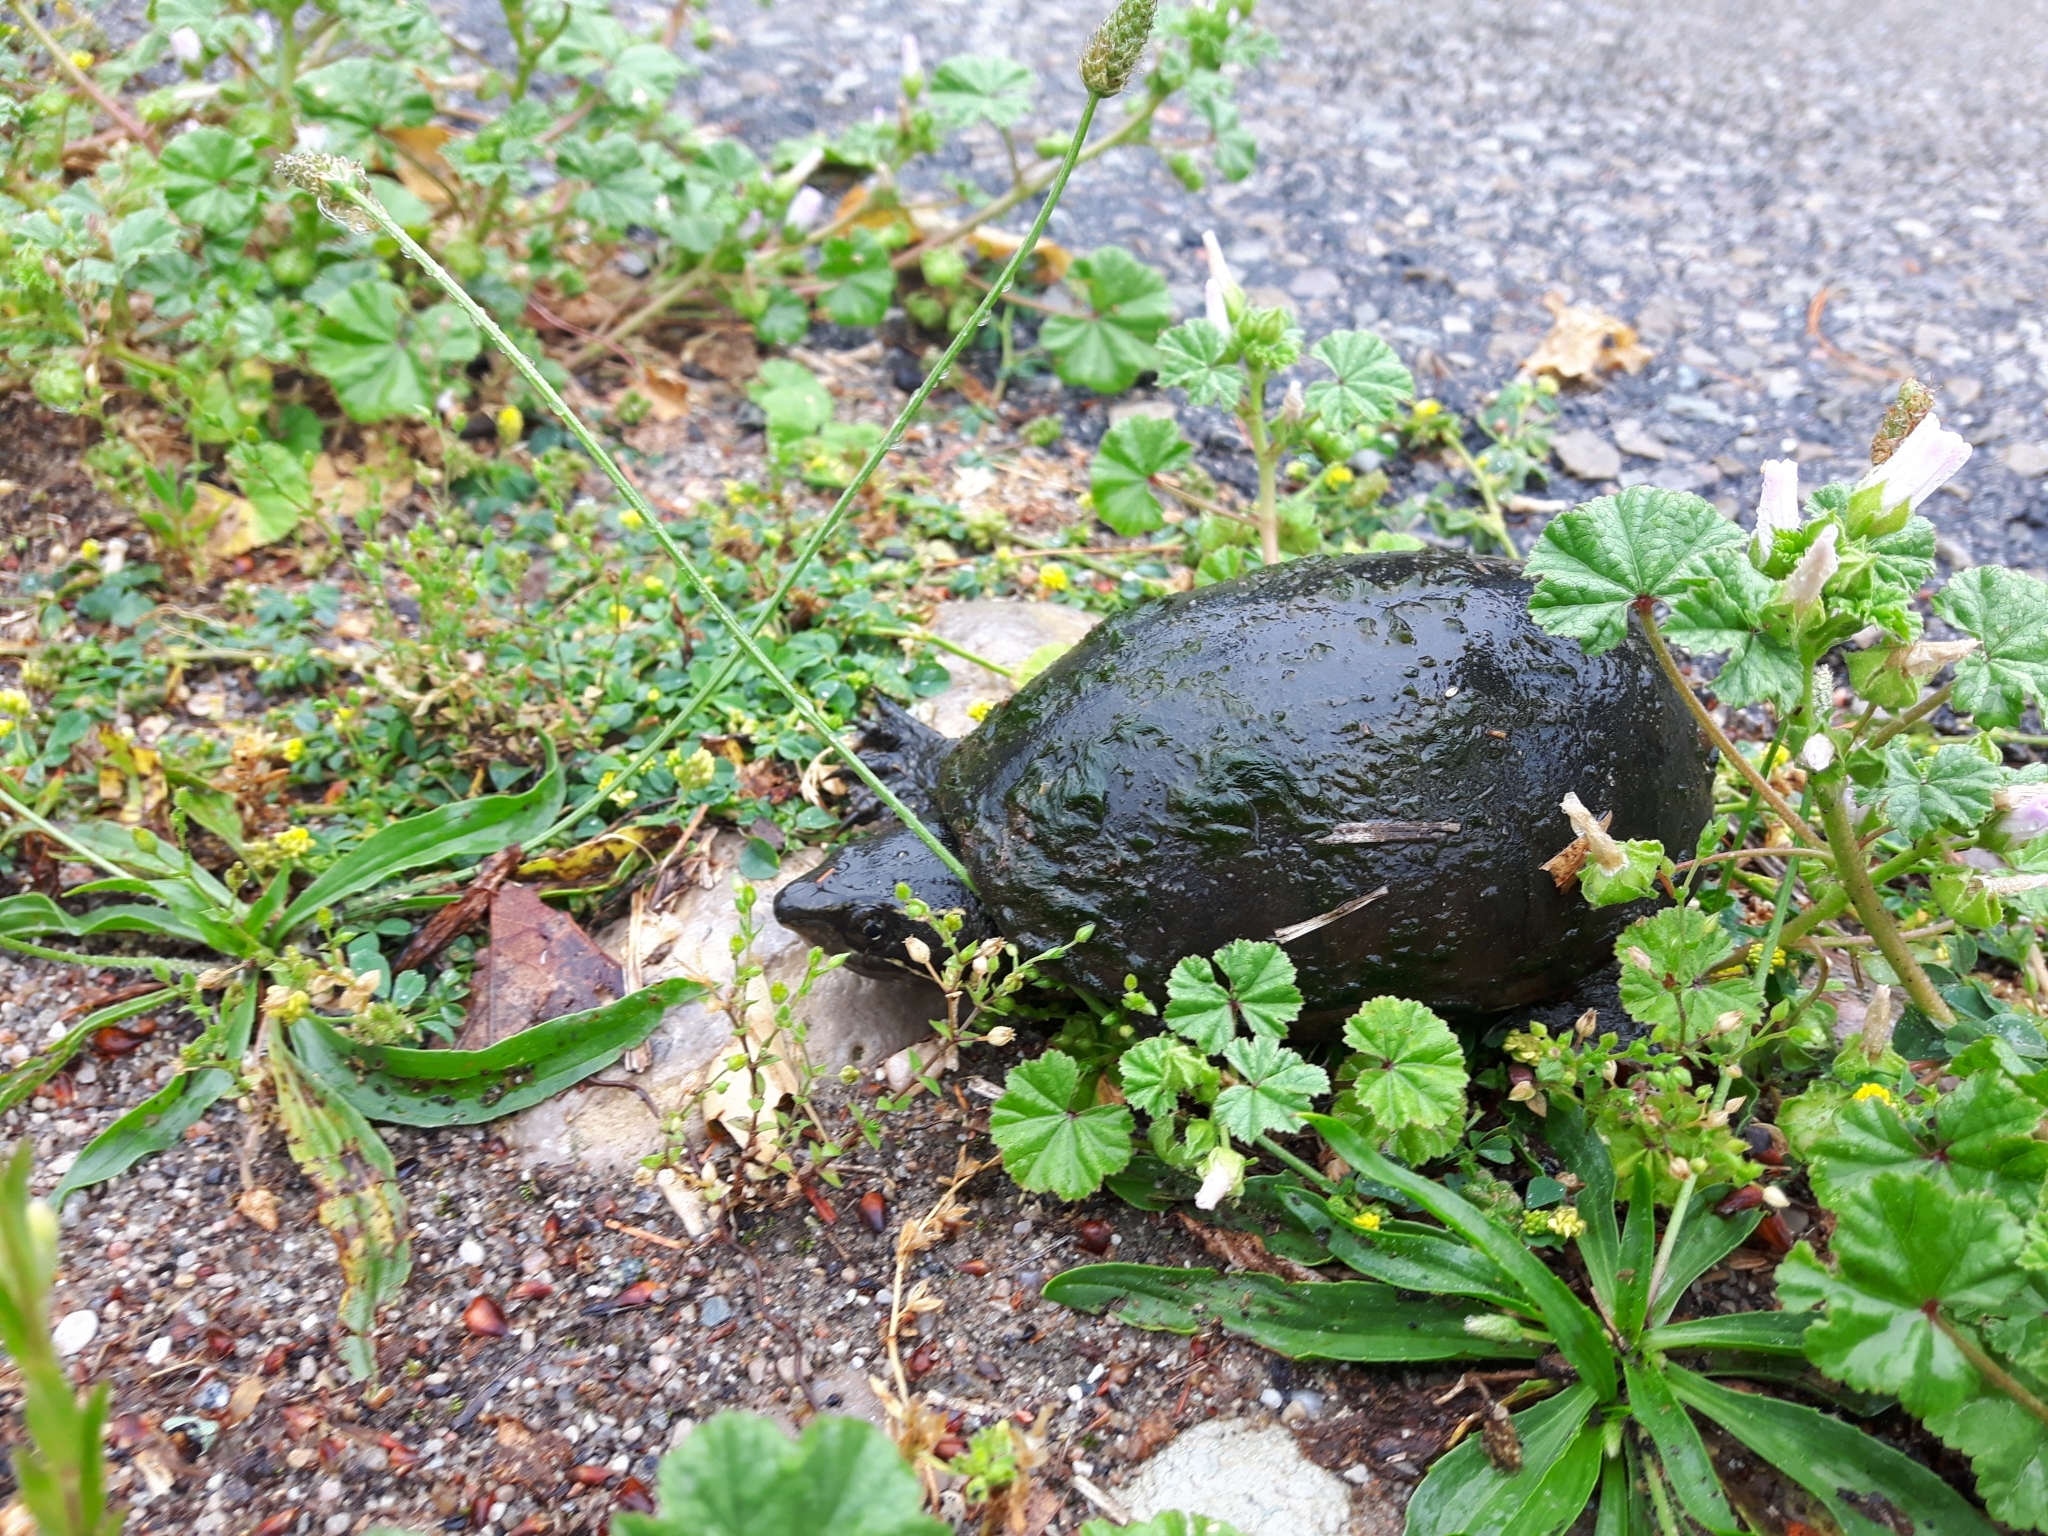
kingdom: Animalia
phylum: Chordata
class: Testudines
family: Kinosternidae
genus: Sternotherus
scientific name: Sternotherus odoratus
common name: Common musk turtle
